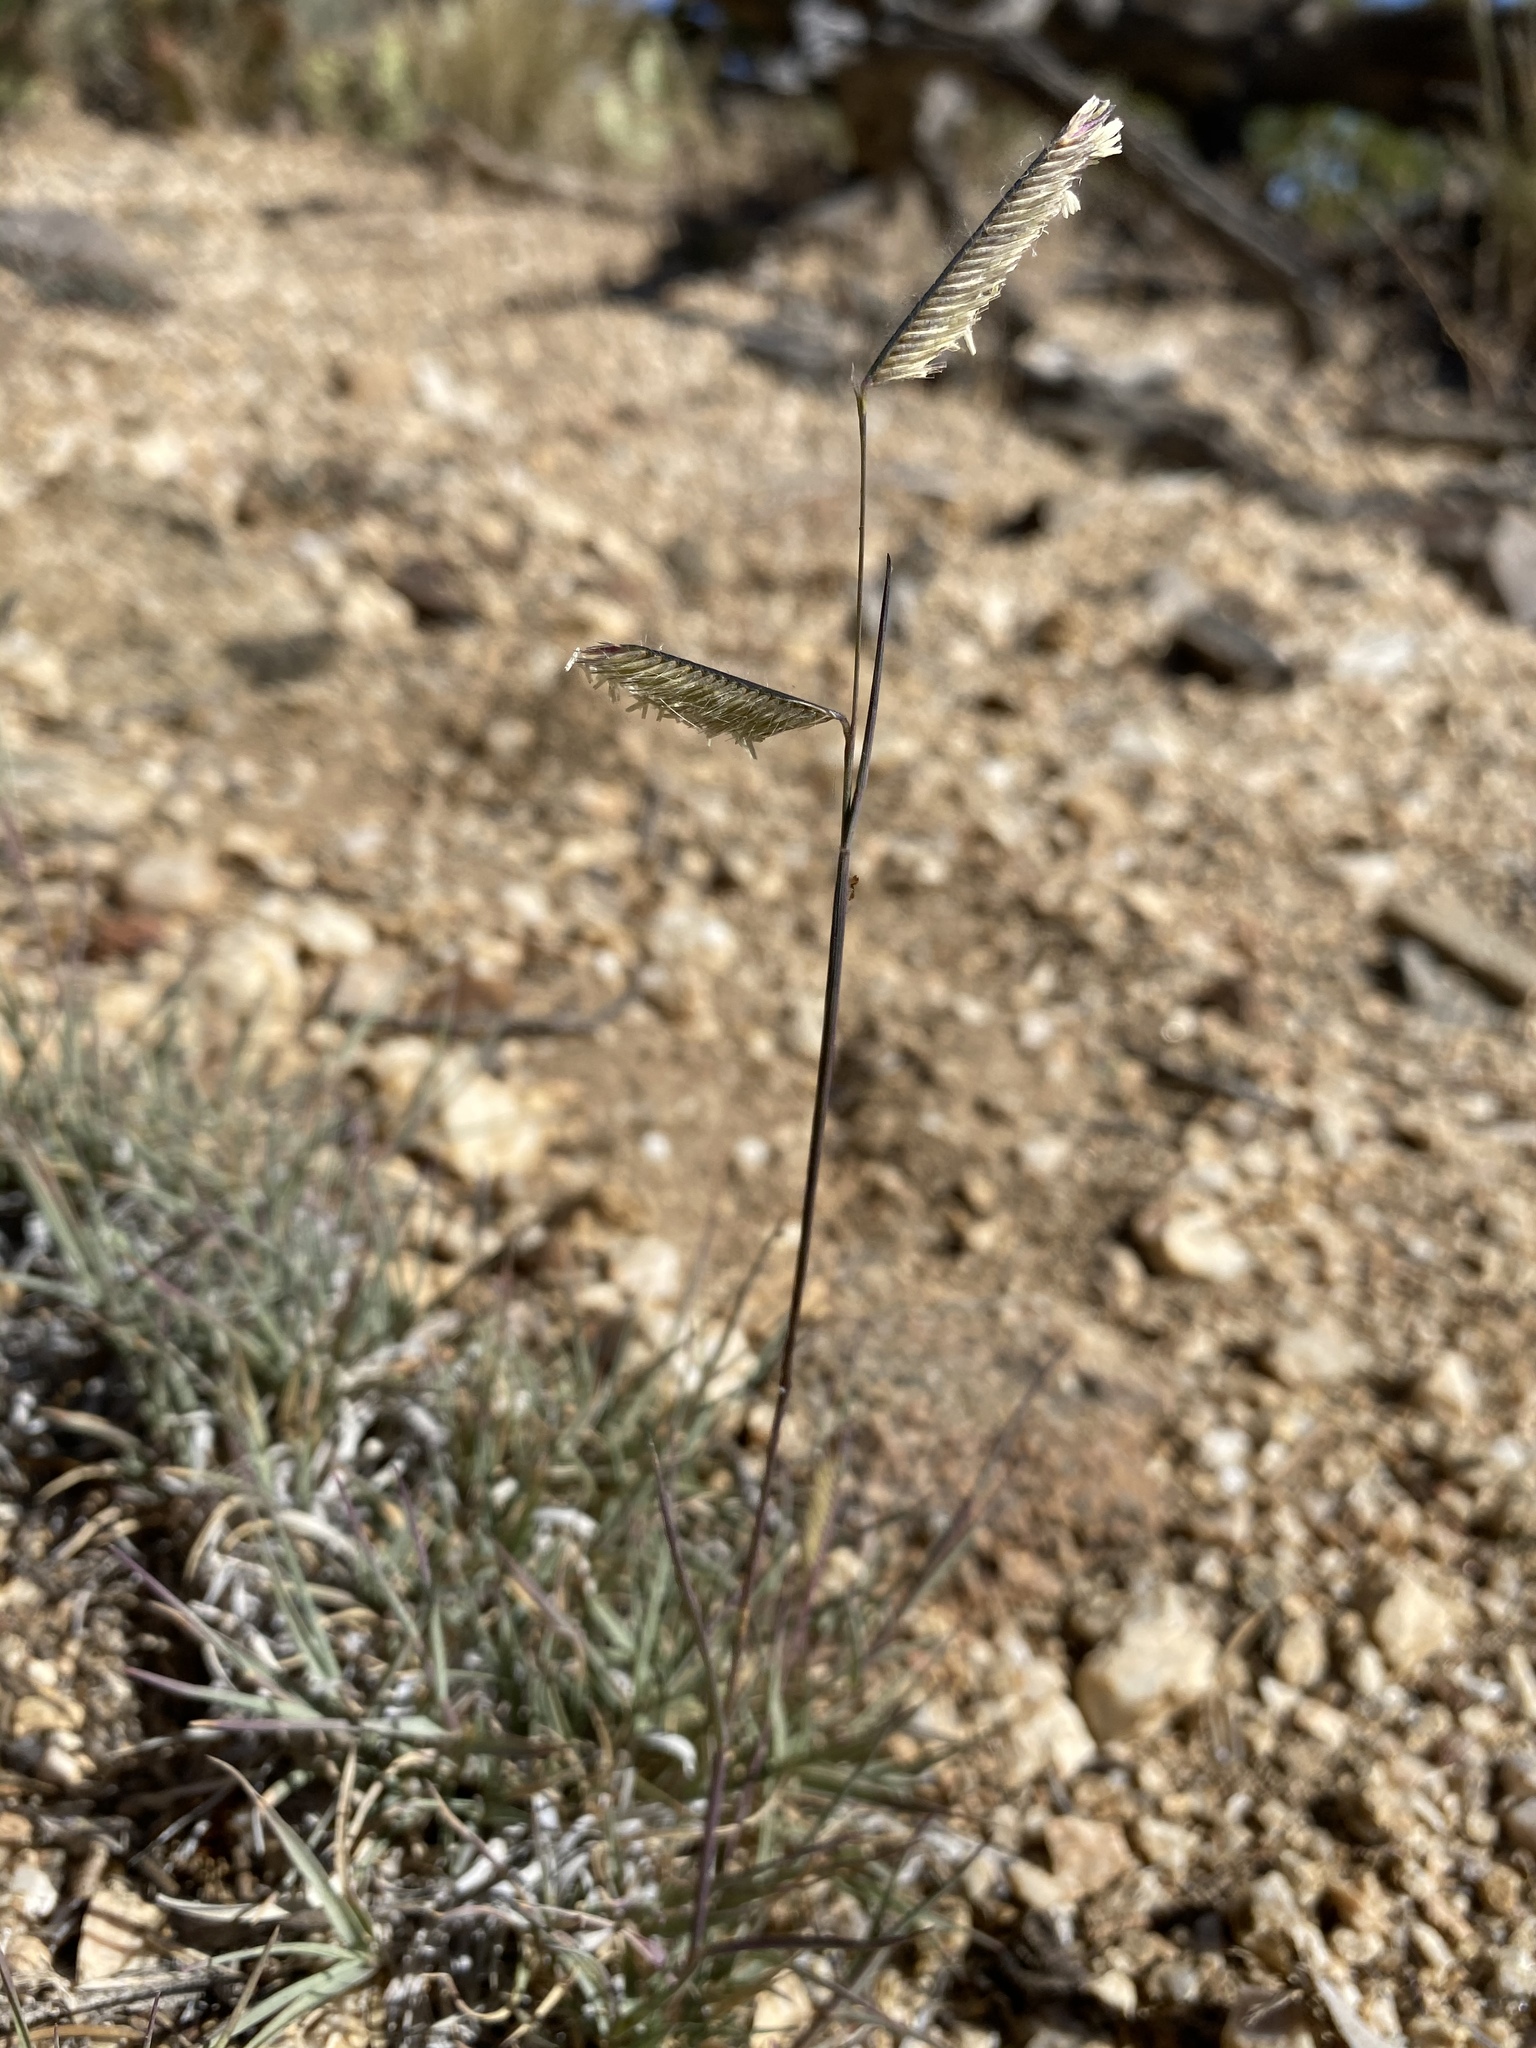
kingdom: Plantae
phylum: Tracheophyta
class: Liliopsida
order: Poales
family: Poaceae
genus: Bouteloua
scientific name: Bouteloua gracilis
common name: Blue grama
